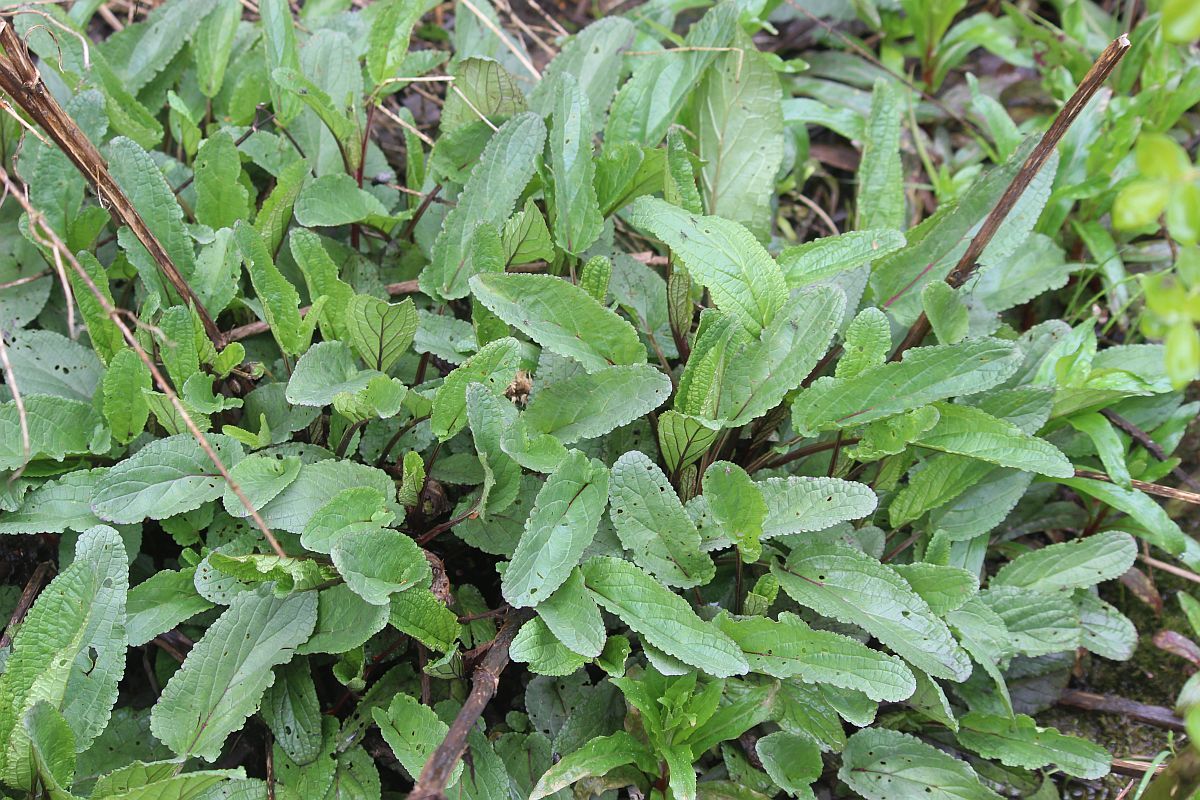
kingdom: Plantae
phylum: Tracheophyta
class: Magnoliopsida
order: Lamiales
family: Scrophulariaceae
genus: Scrophularia
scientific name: Scrophularia auriculata
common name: Water betony
